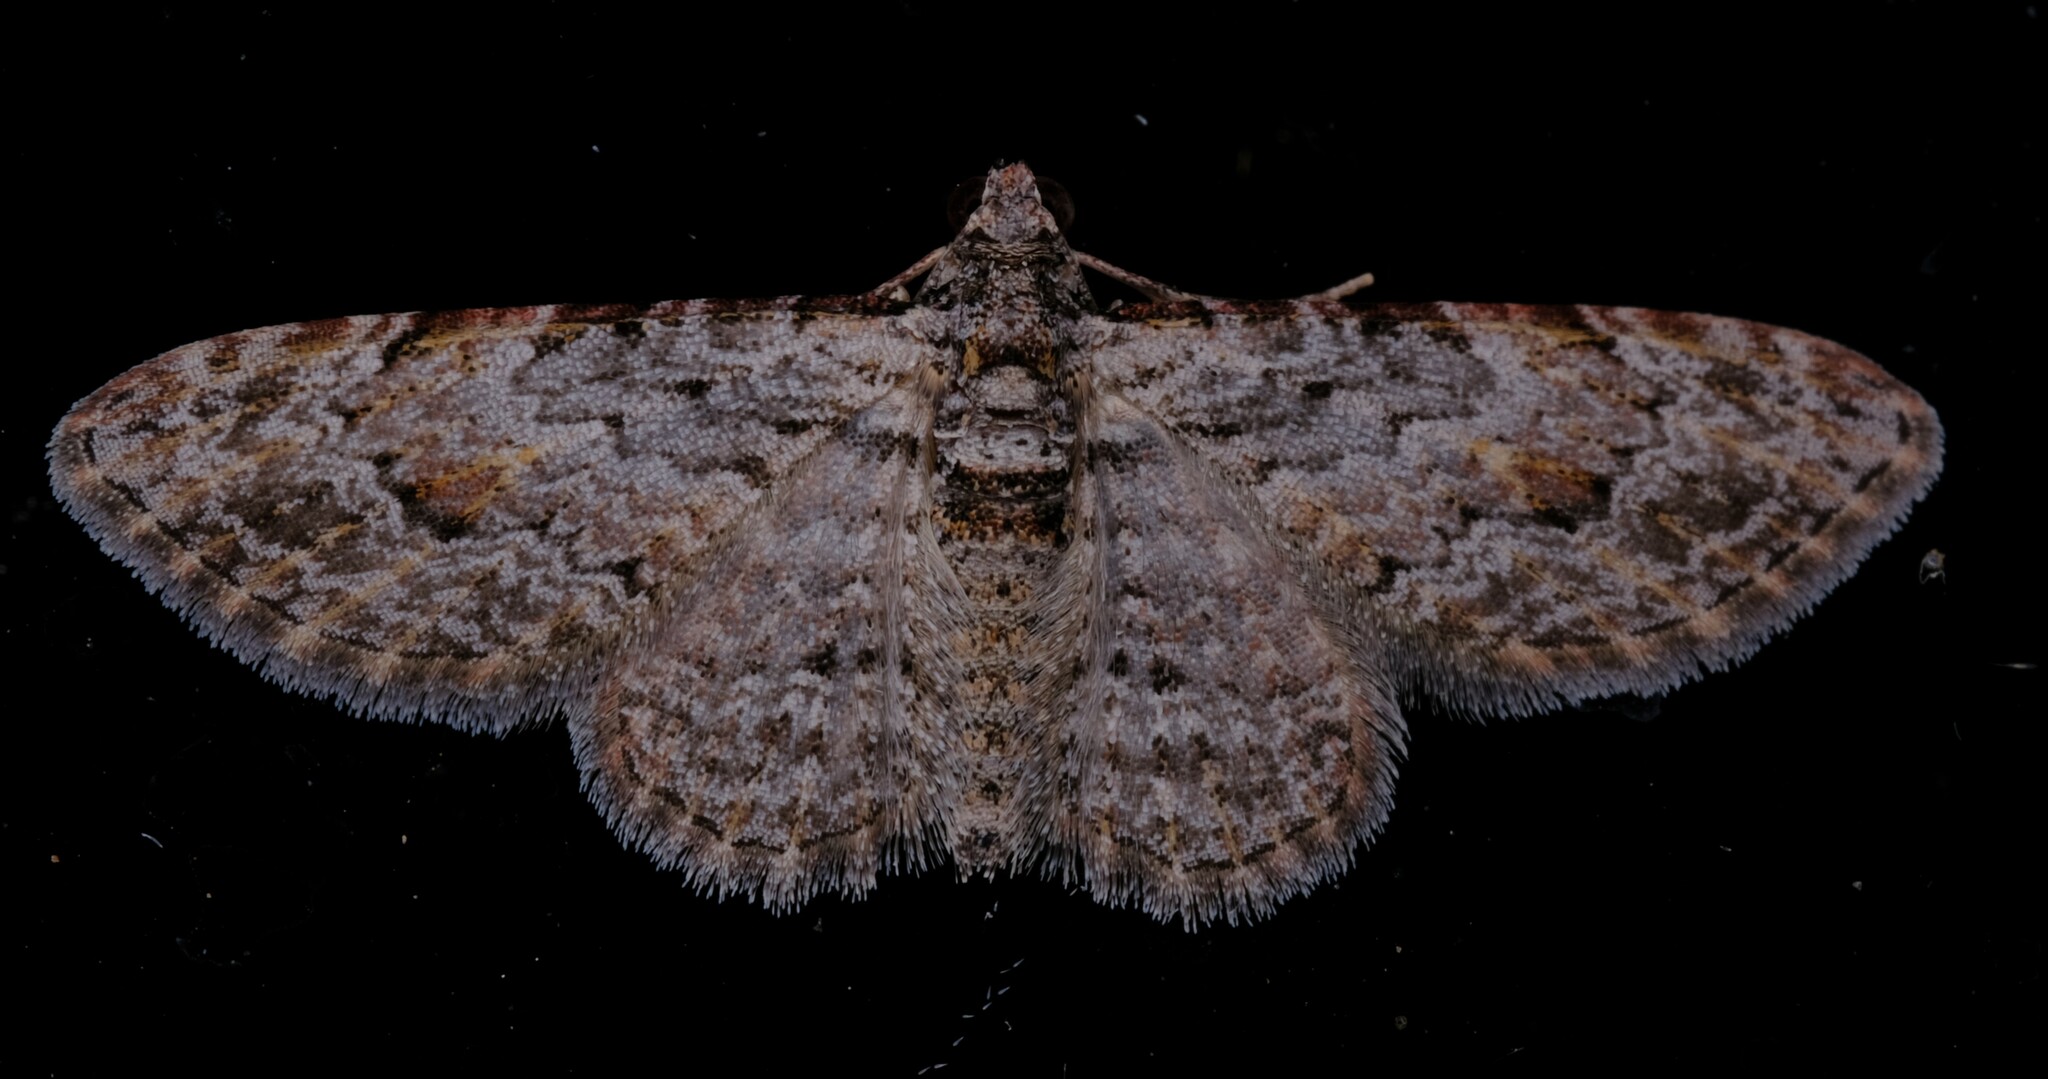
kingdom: Animalia
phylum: Arthropoda
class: Insecta
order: Lepidoptera
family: Geometridae
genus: Chloroclystis
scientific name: Chloroclystis insigillata
